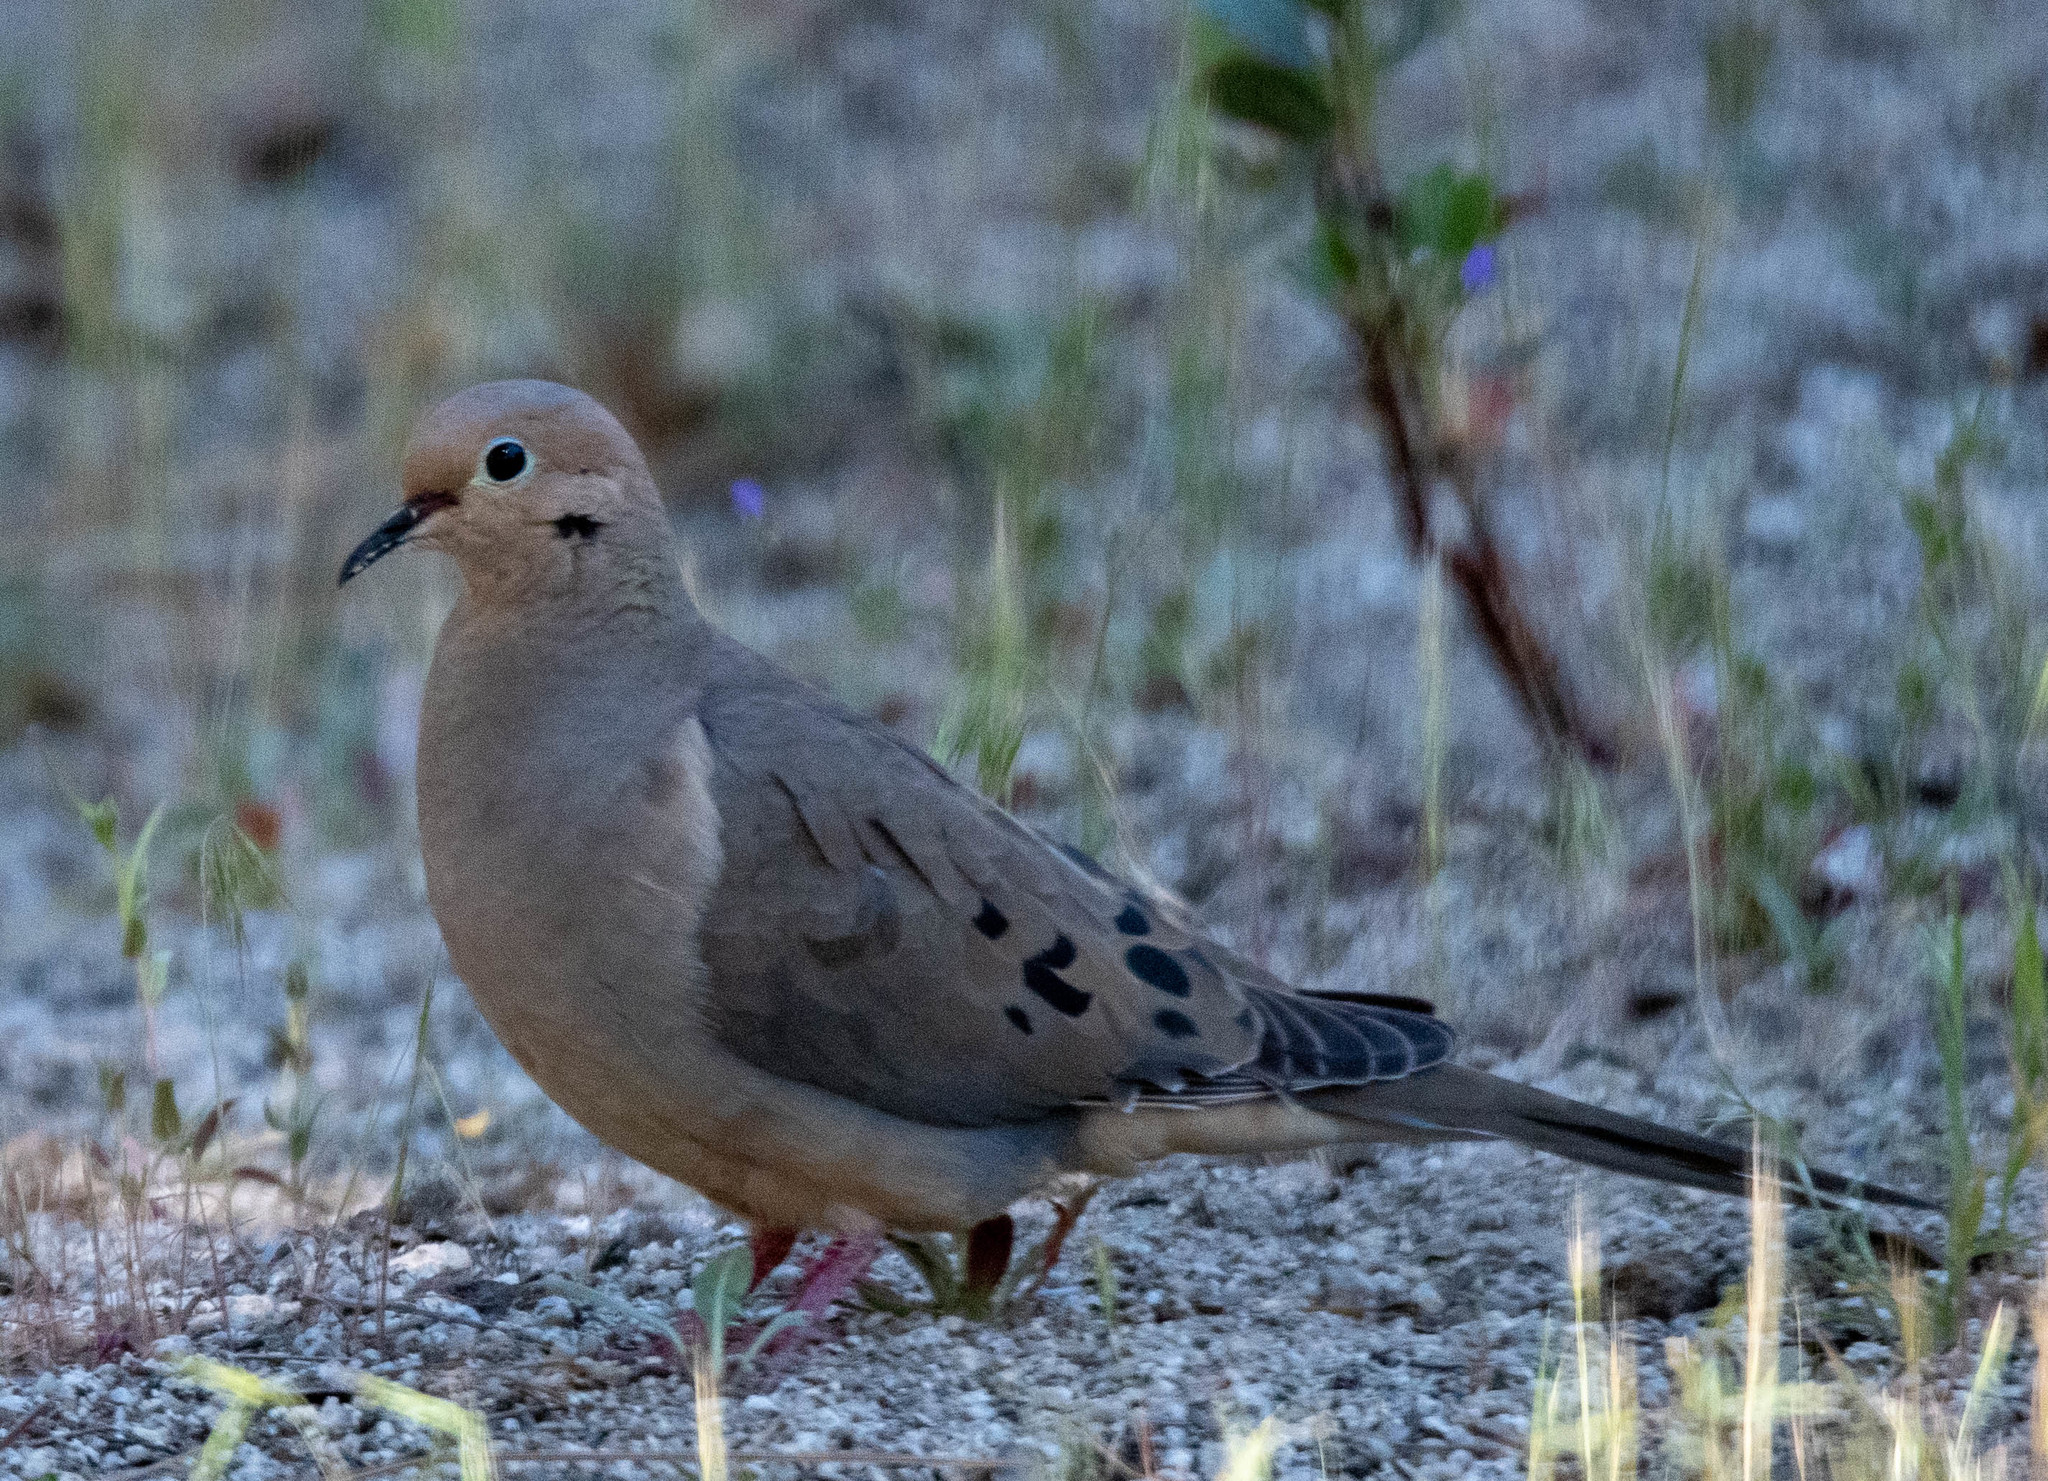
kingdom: Animalia
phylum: Chordata
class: Aves
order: Columbiformes
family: Columbidae
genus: Zenaida
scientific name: Zenaida macroura
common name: Mourning dove
